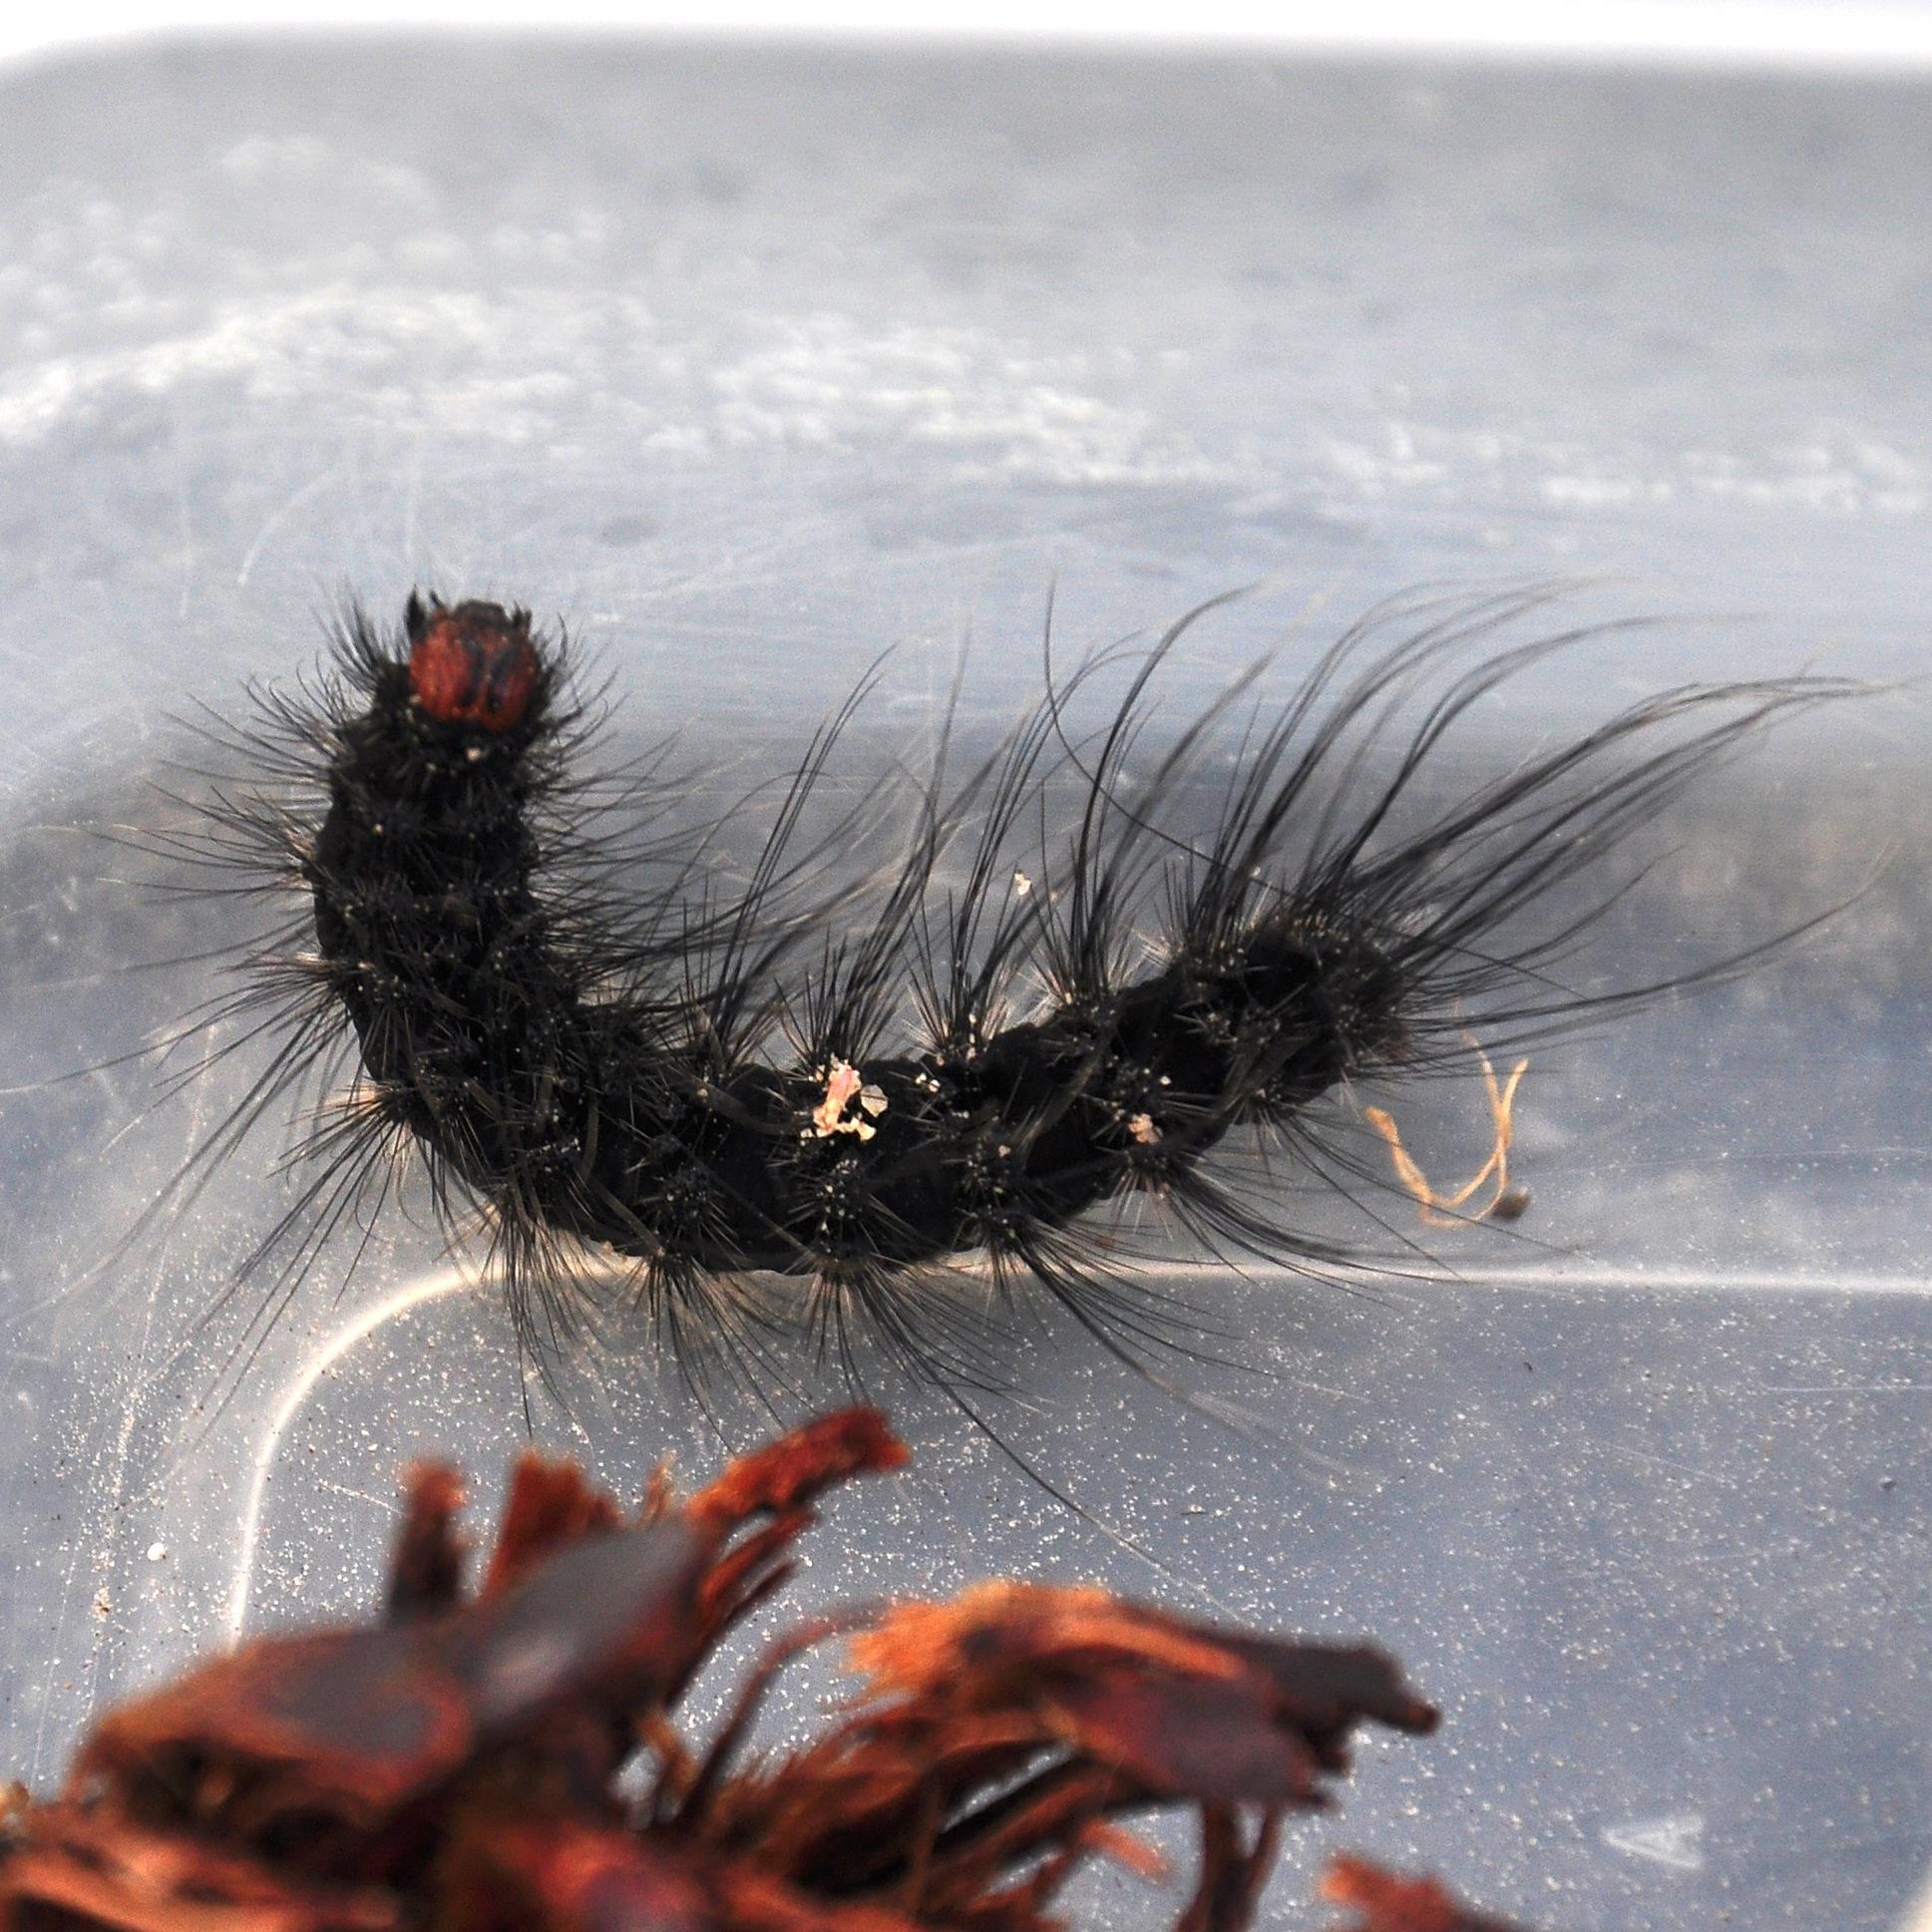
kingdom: Animalia
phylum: Arthropoda
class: Insecta
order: Lepidoptera
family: Erebidae
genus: Thyretes
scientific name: Thyretes hippotes
